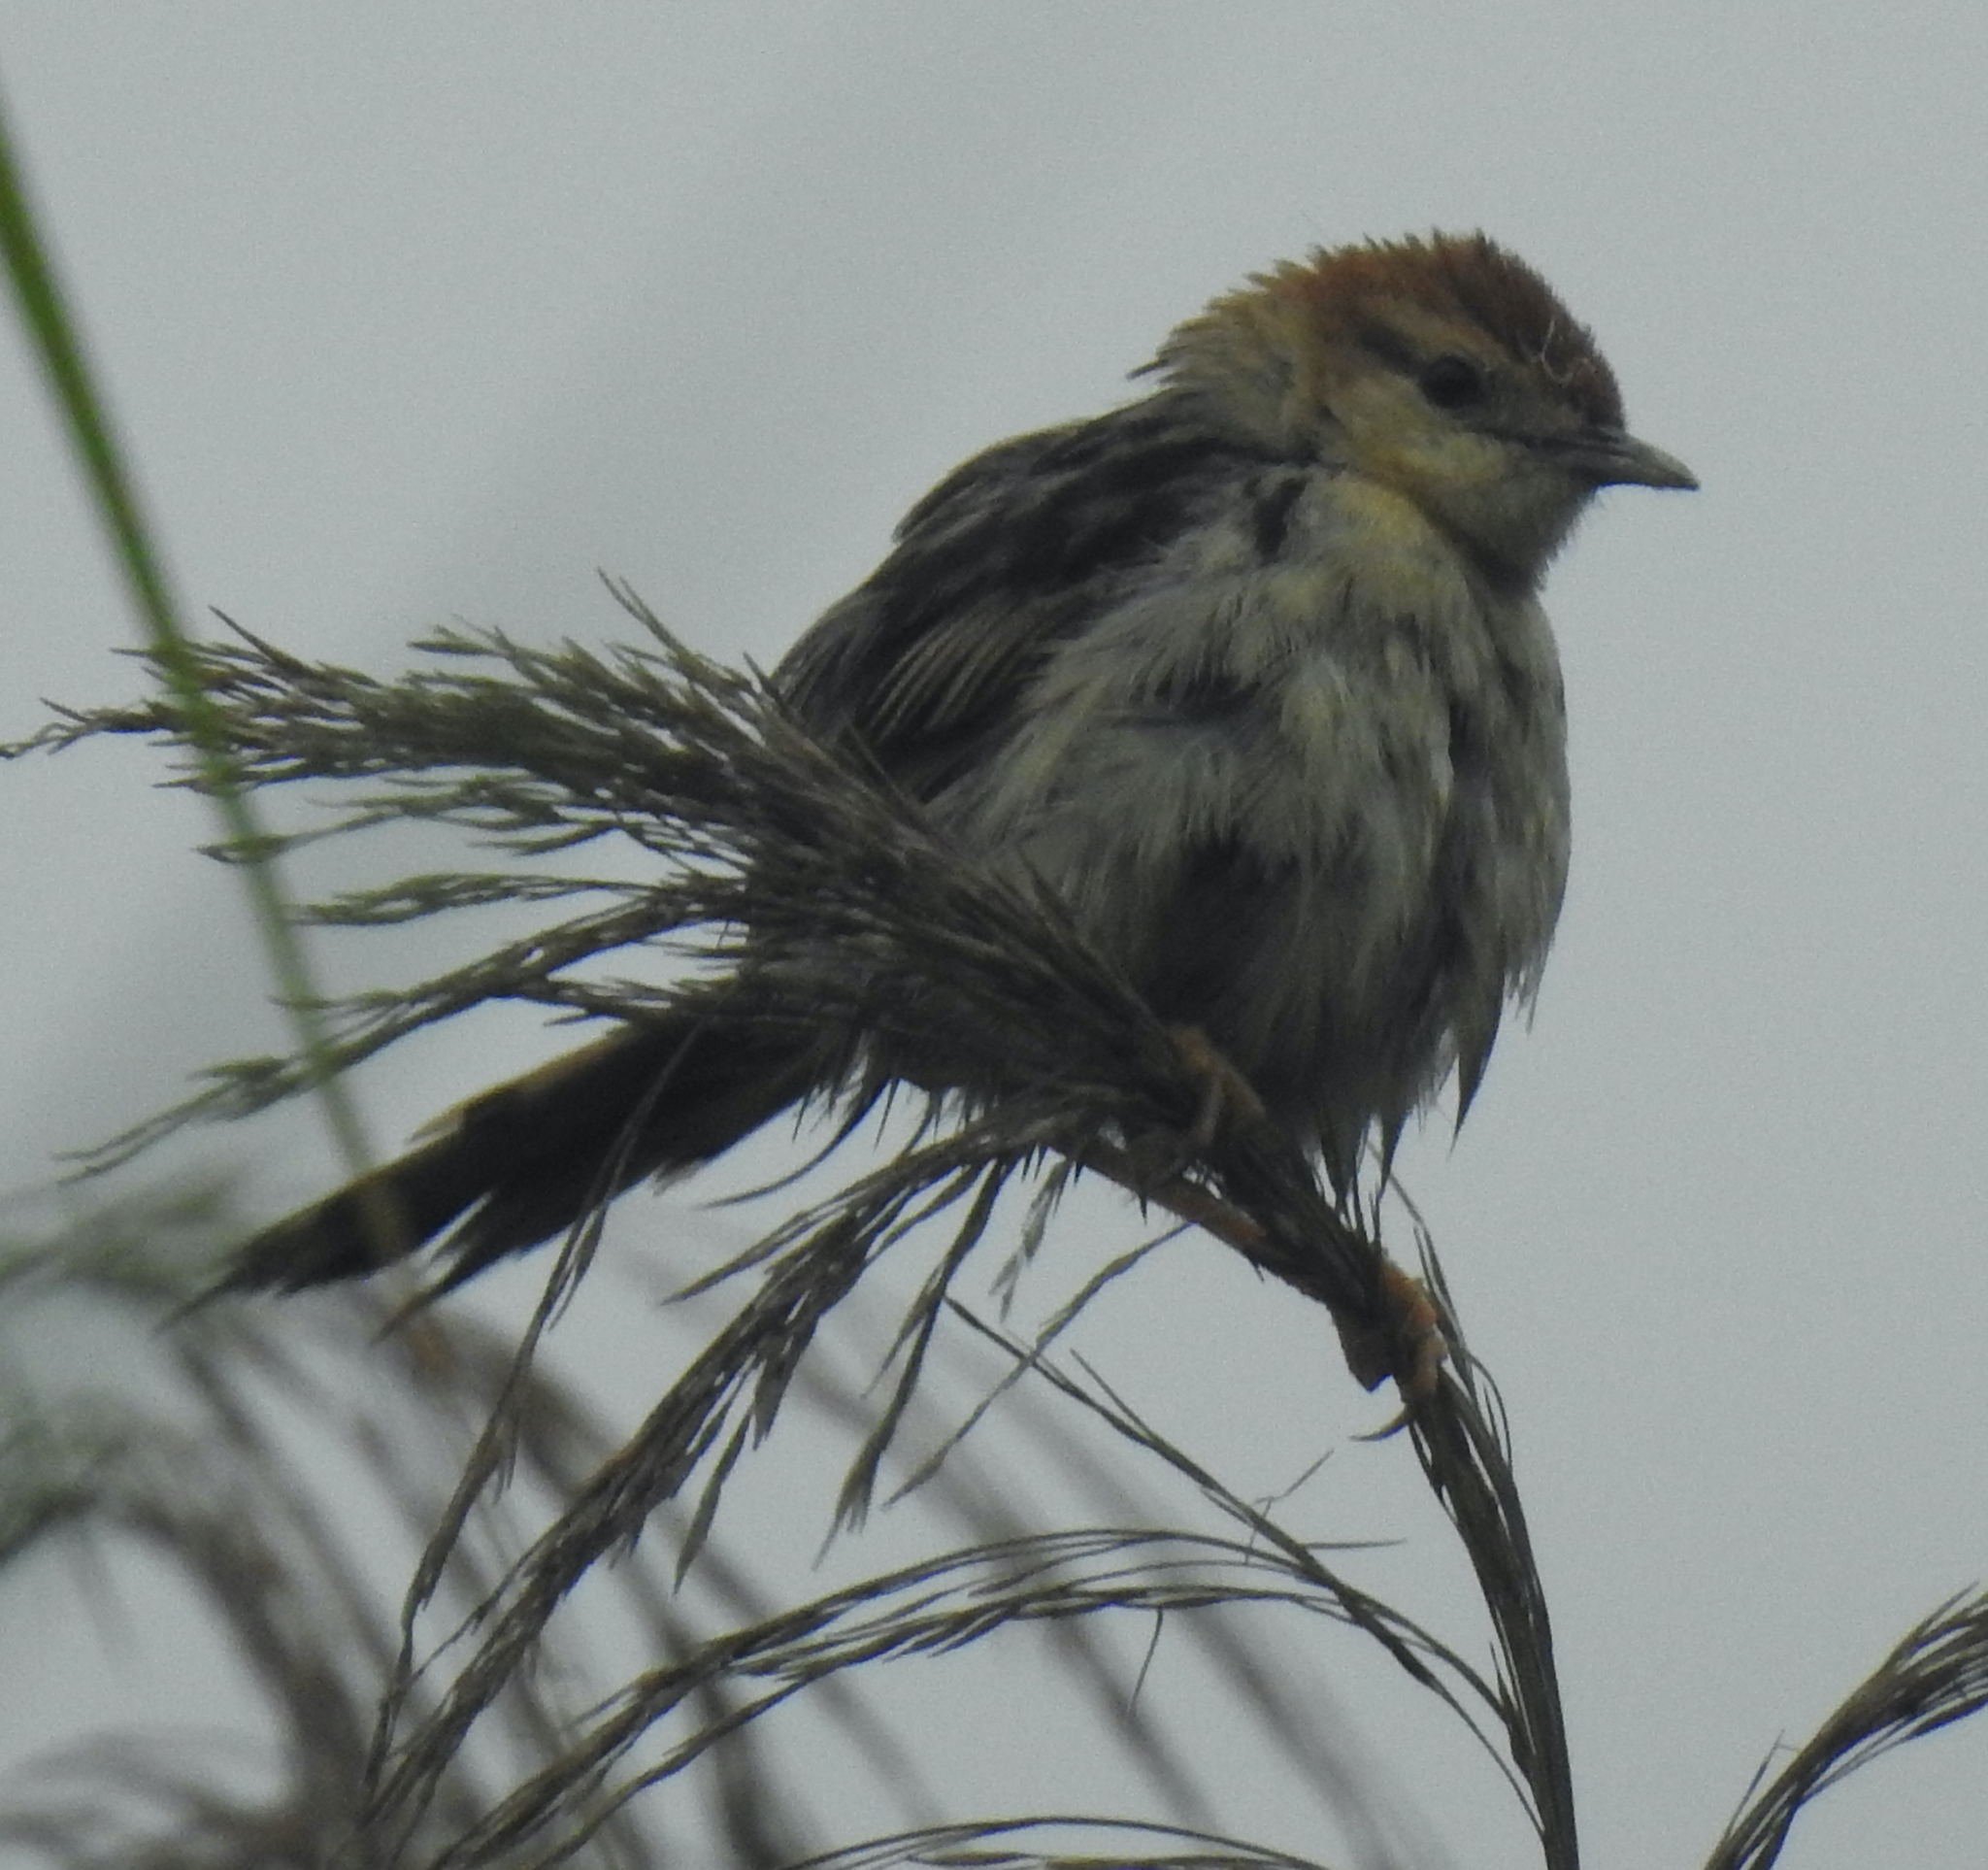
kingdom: Animalia
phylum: Chordata
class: Aves
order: Passeriformes
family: Cisticolidae
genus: Cisticola
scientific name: Cisticola tinniens
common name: Levaillant's cisticola
